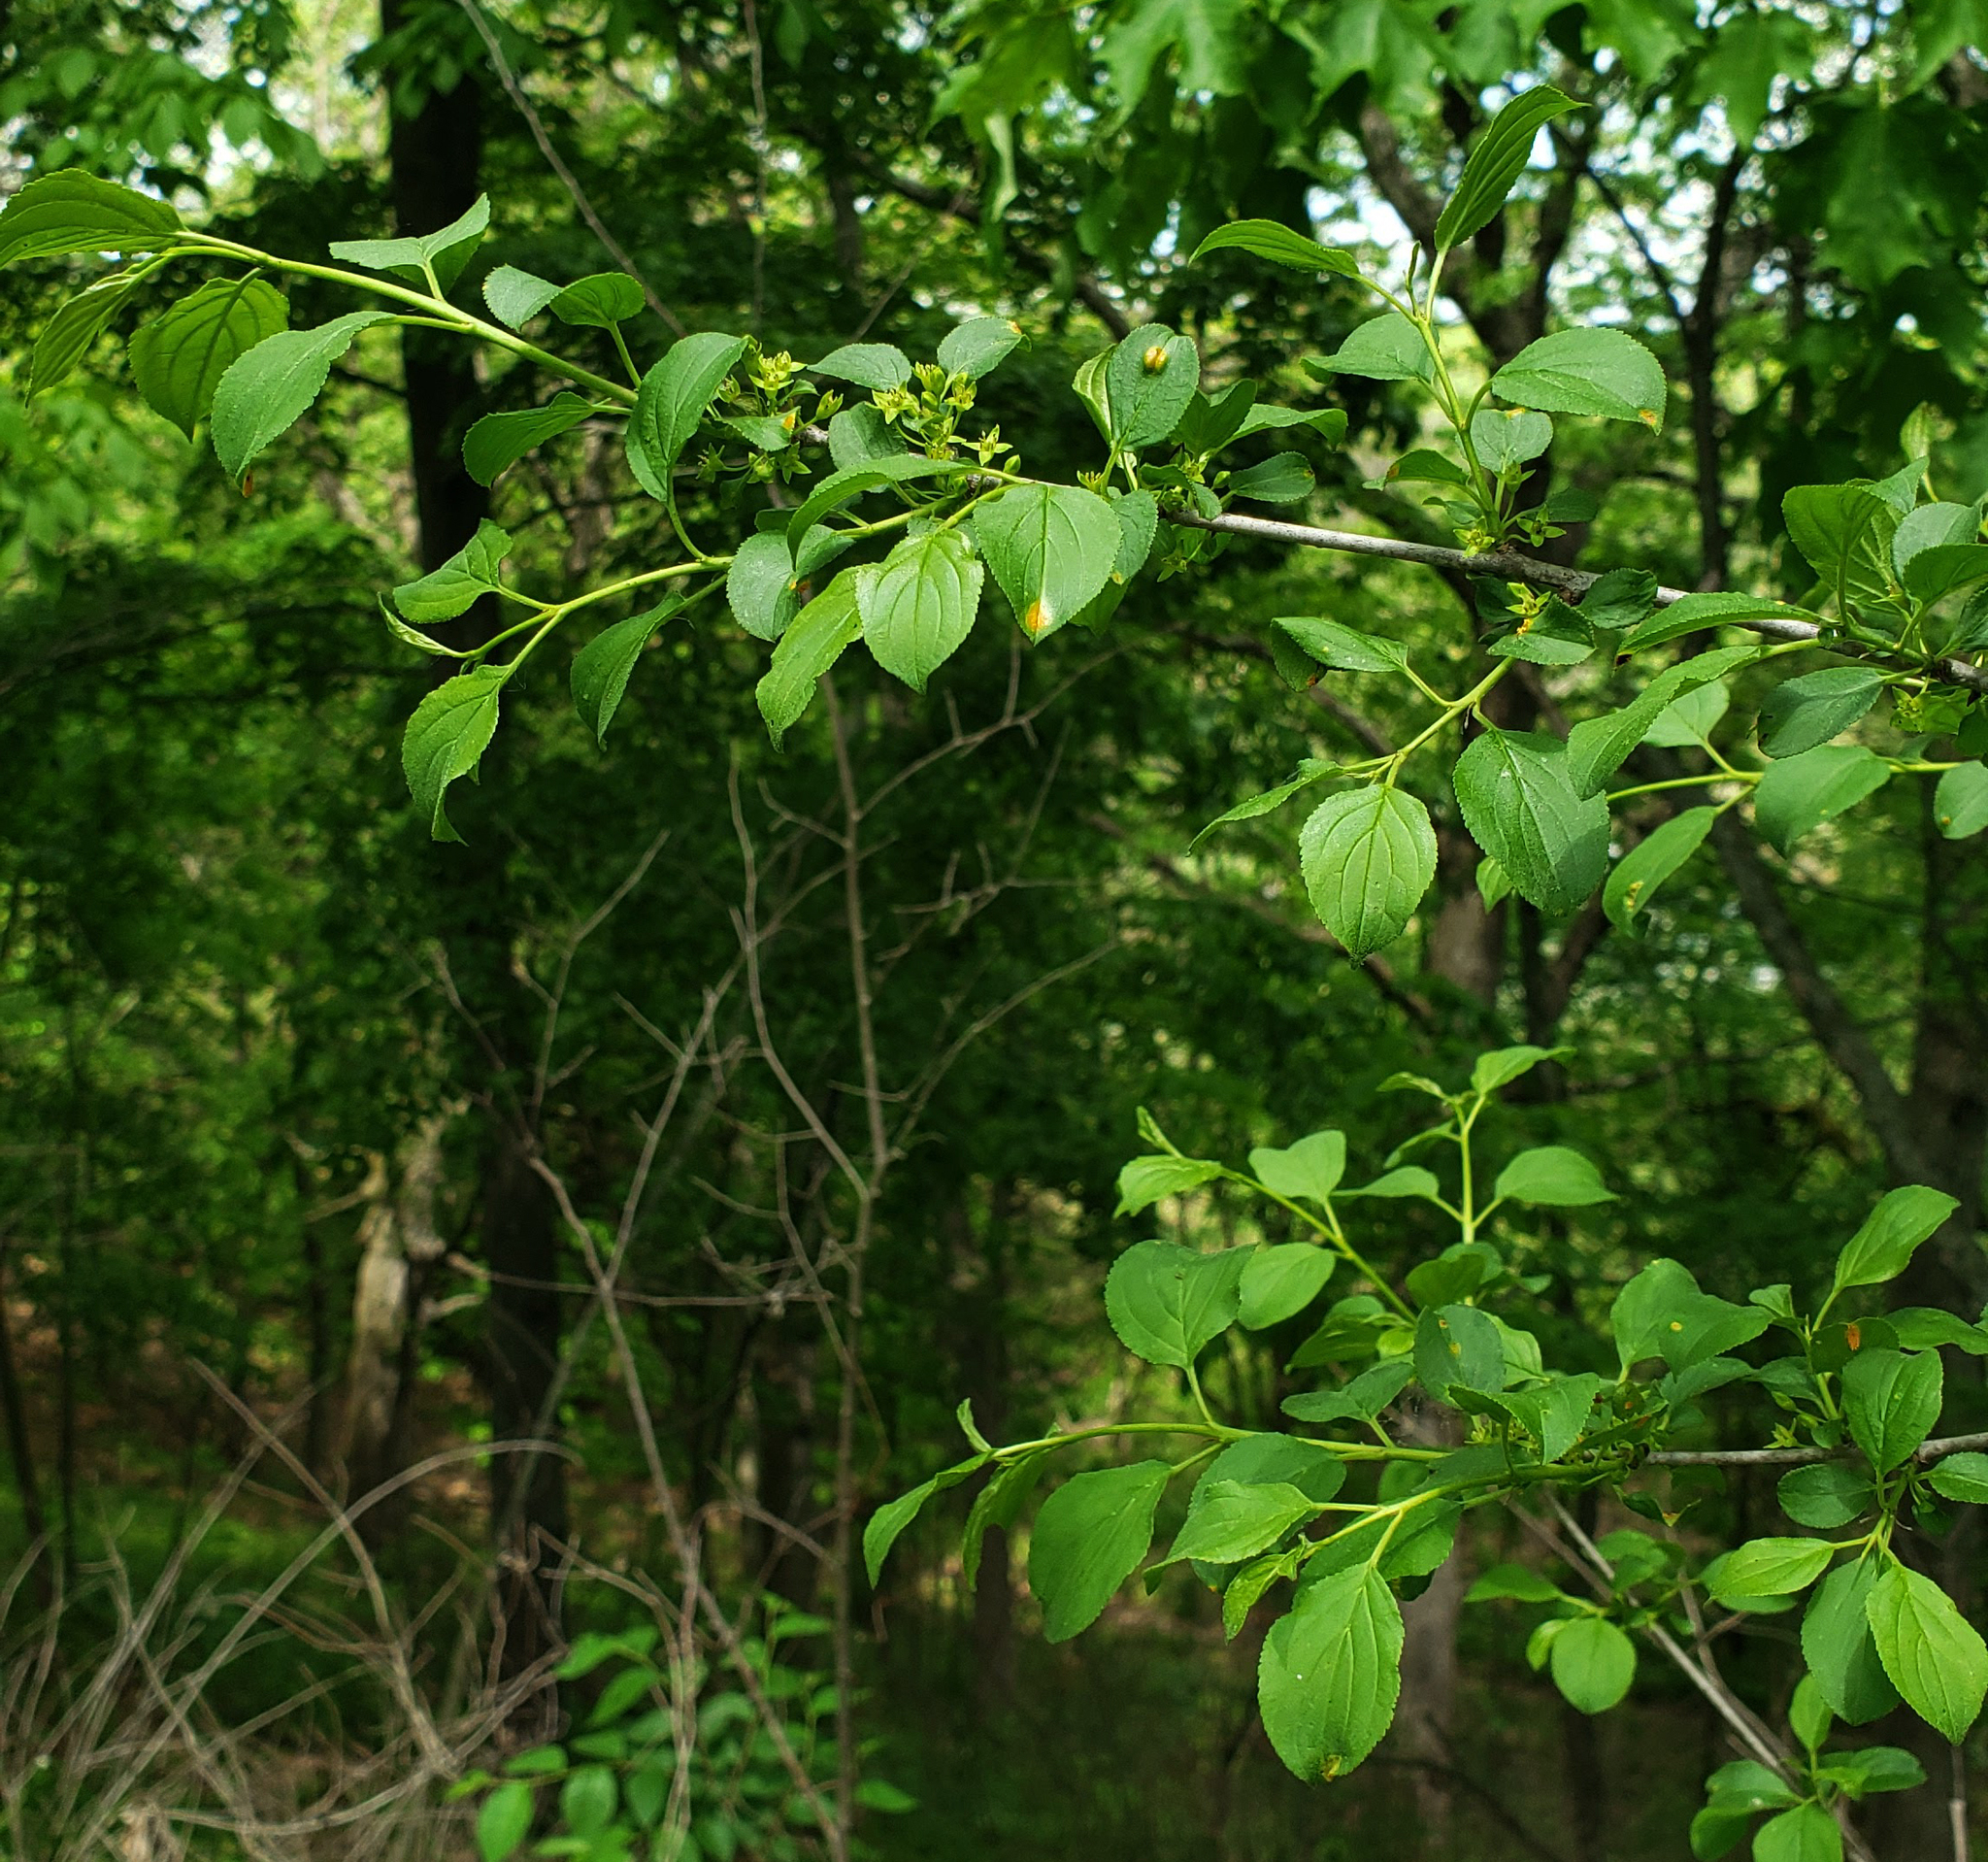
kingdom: Plantae
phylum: Tracheophyta
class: Magnoliopsida
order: Rosales
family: Rhamnaceae
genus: Rhamnus
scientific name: Rhamnus cathartica
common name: Common buckthorn
